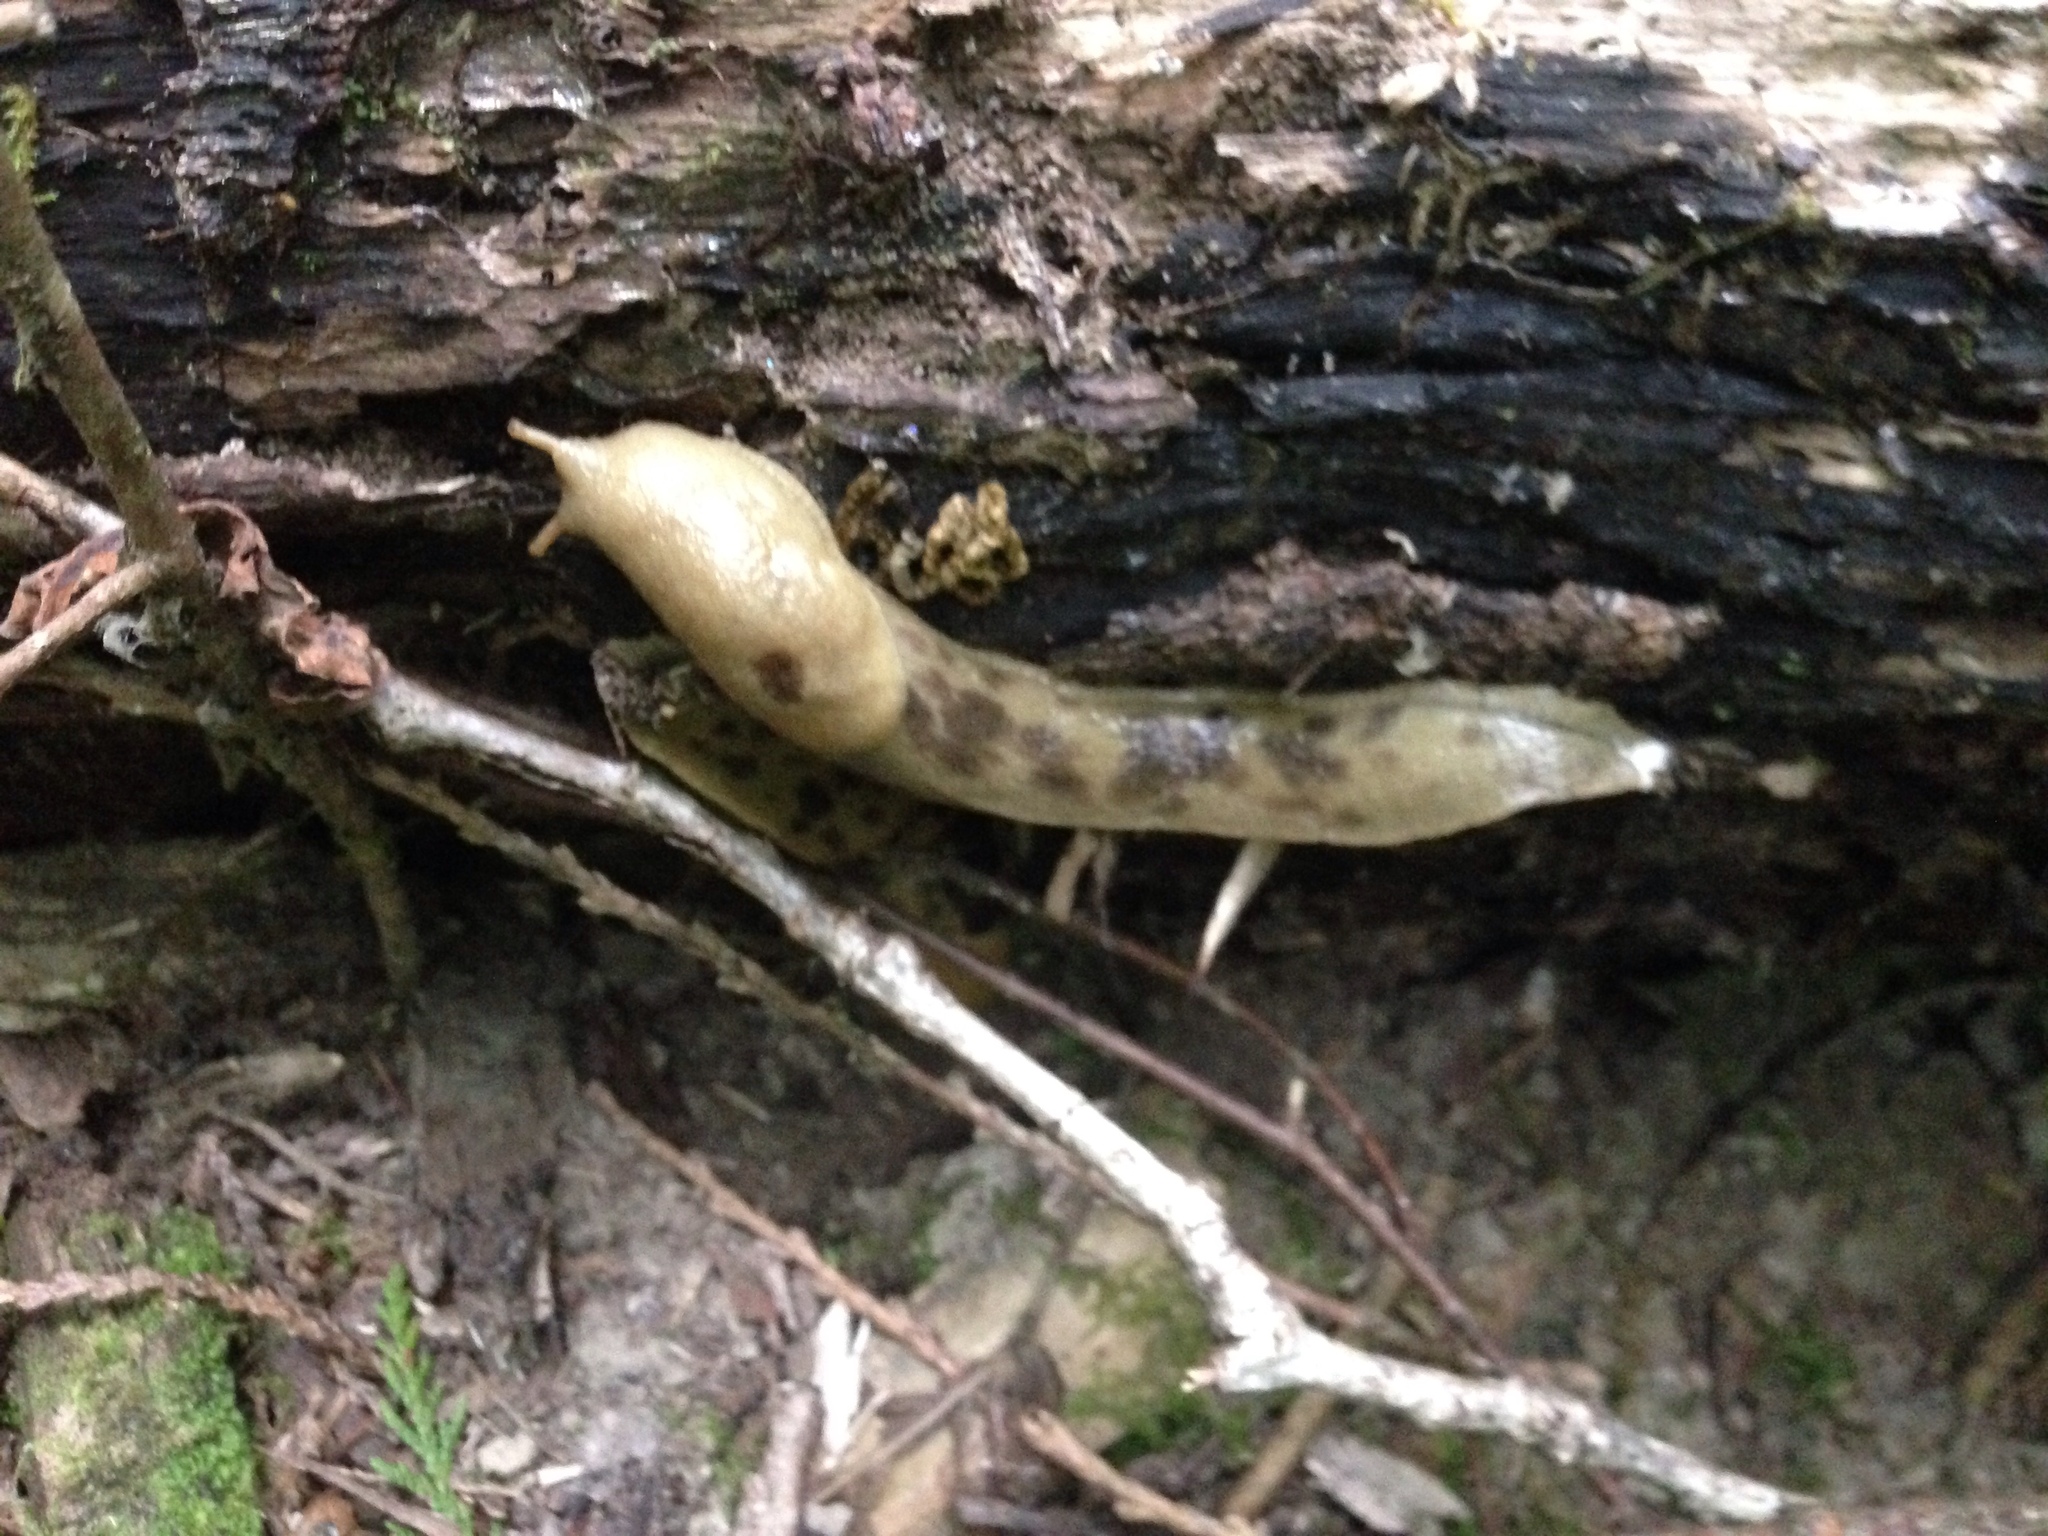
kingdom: Animalia
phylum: Mollusca
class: Gastropoda
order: Stylommatophora
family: Ariolimacidae
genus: Ariolimax
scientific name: Ariolimax columbianus
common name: Pacific banana slug
